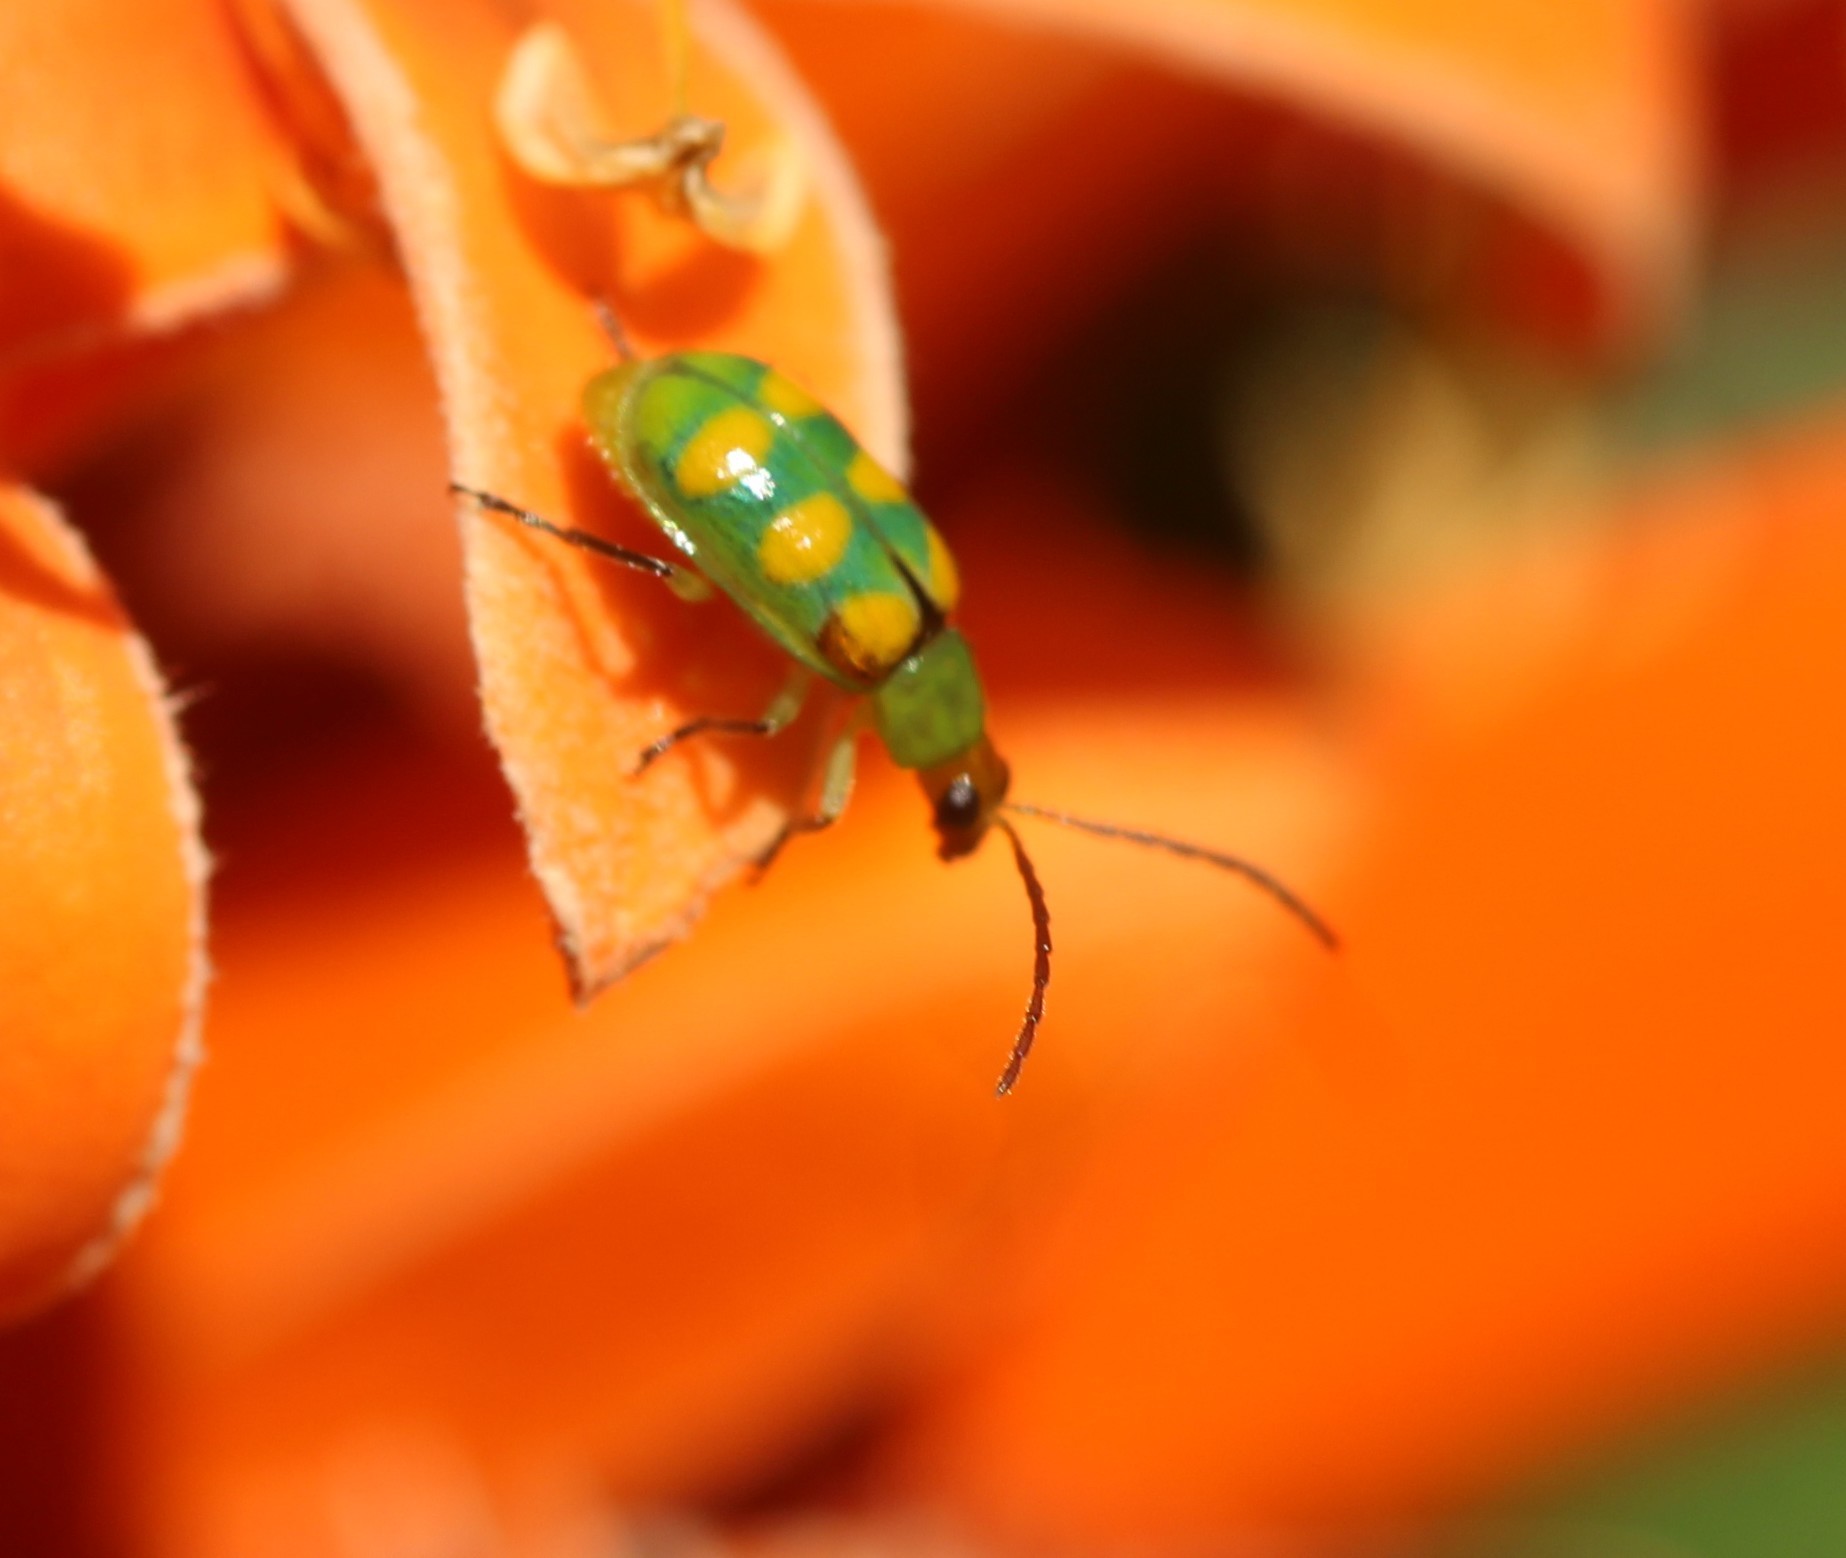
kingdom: Animalia
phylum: Arthropoda
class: Insecta
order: Coleoptera
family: Chrysomelidae
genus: Diabrotica
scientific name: Diabrotica speciosa
